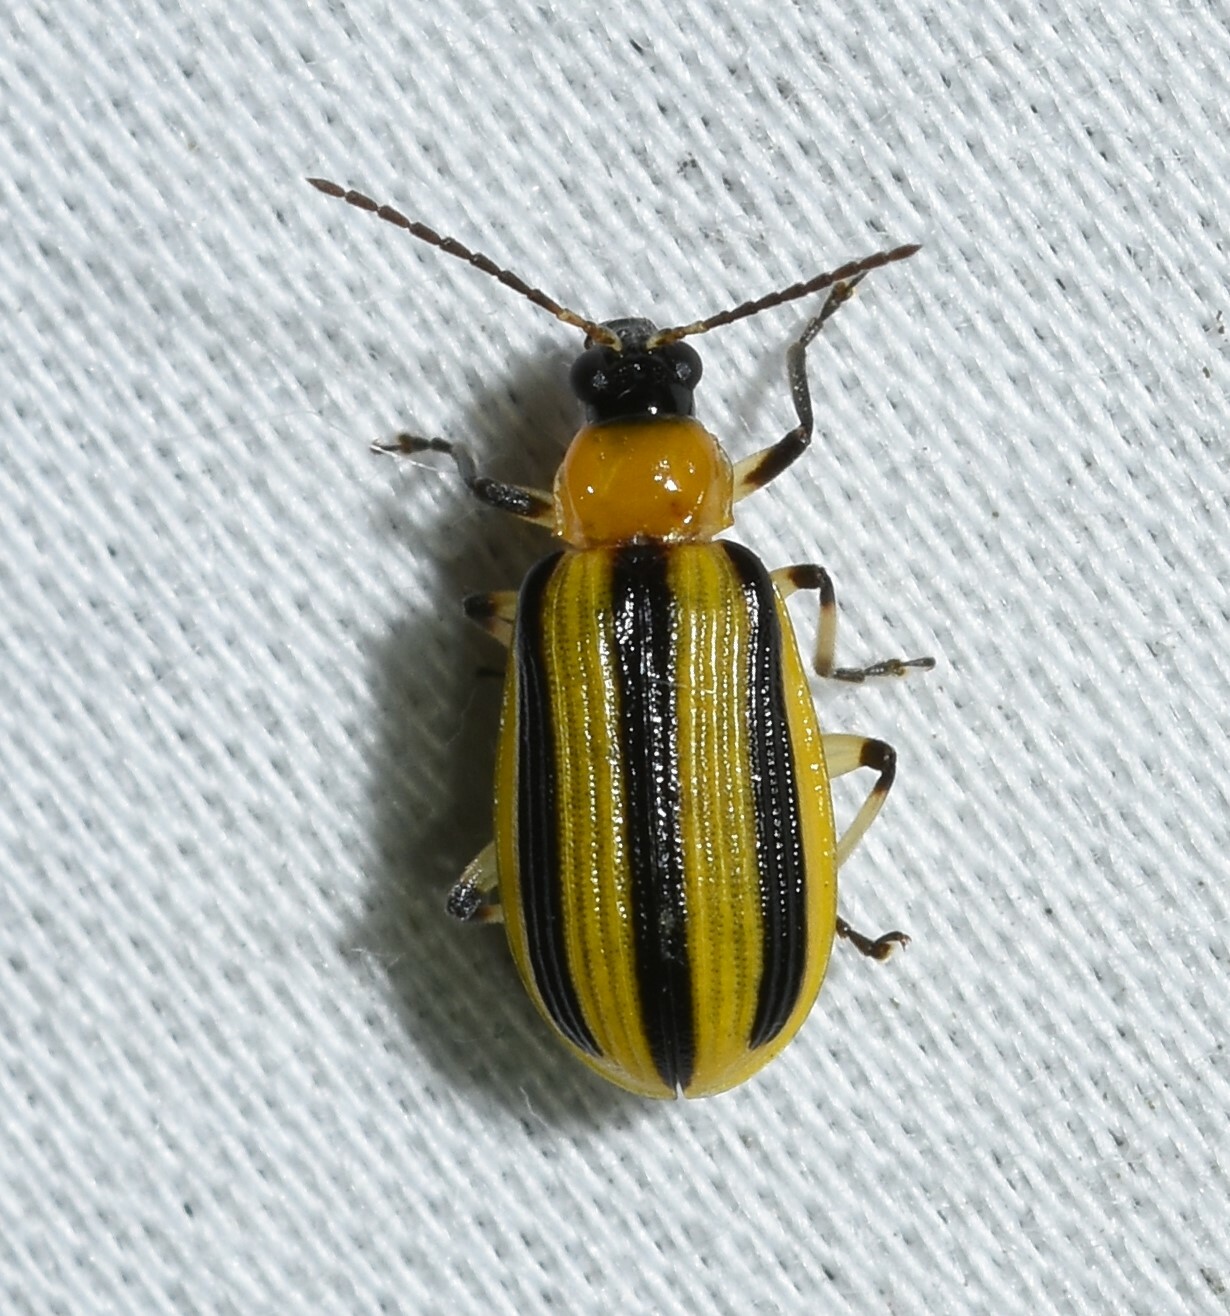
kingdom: Animalia
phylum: Arthropoda
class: Insecta
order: Coleoptera
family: Chrysomelidae
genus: Acalymma
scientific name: Acalymma vittatum
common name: Striped cucumber beetle
